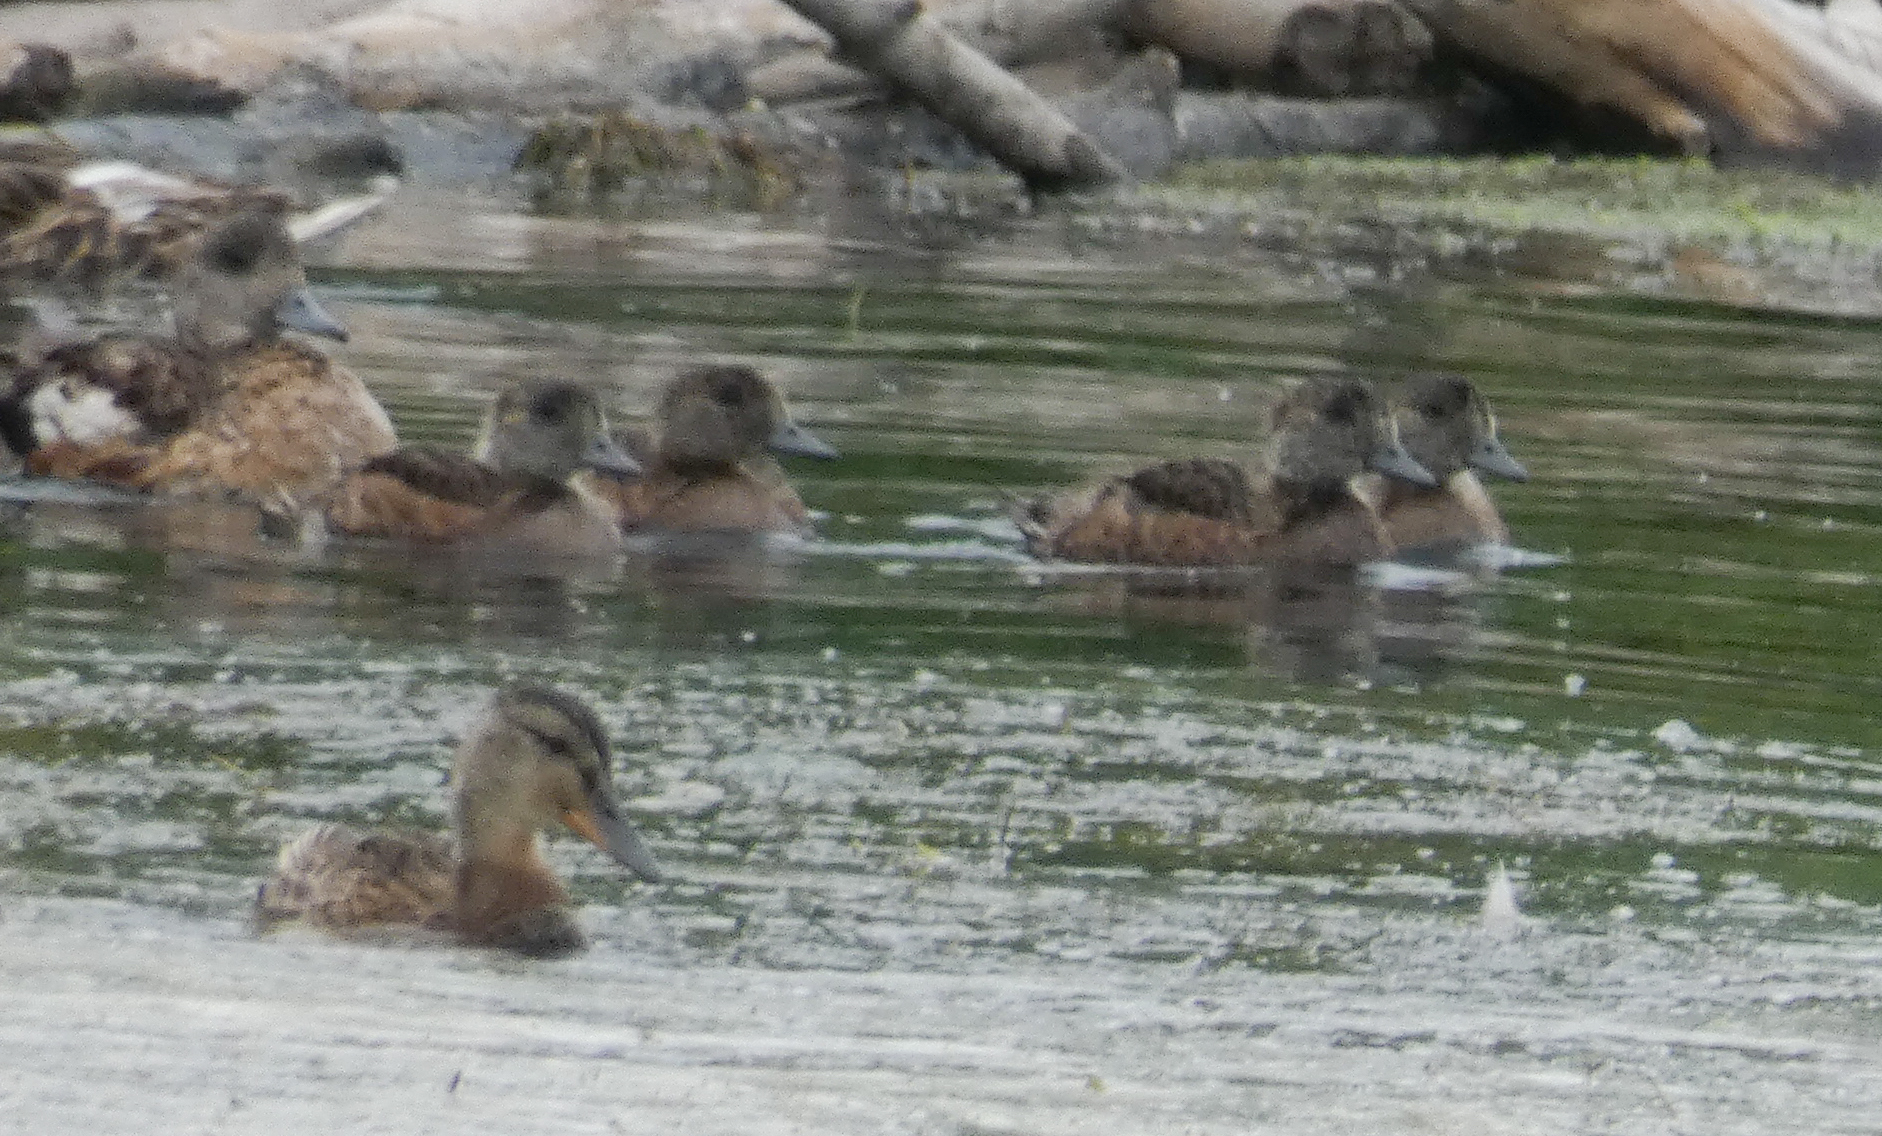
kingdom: Animalia
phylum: Chordata
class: Aves
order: Anseriformes
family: Anatidae
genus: Mareca
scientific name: Mareca americana
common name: American wigeon
